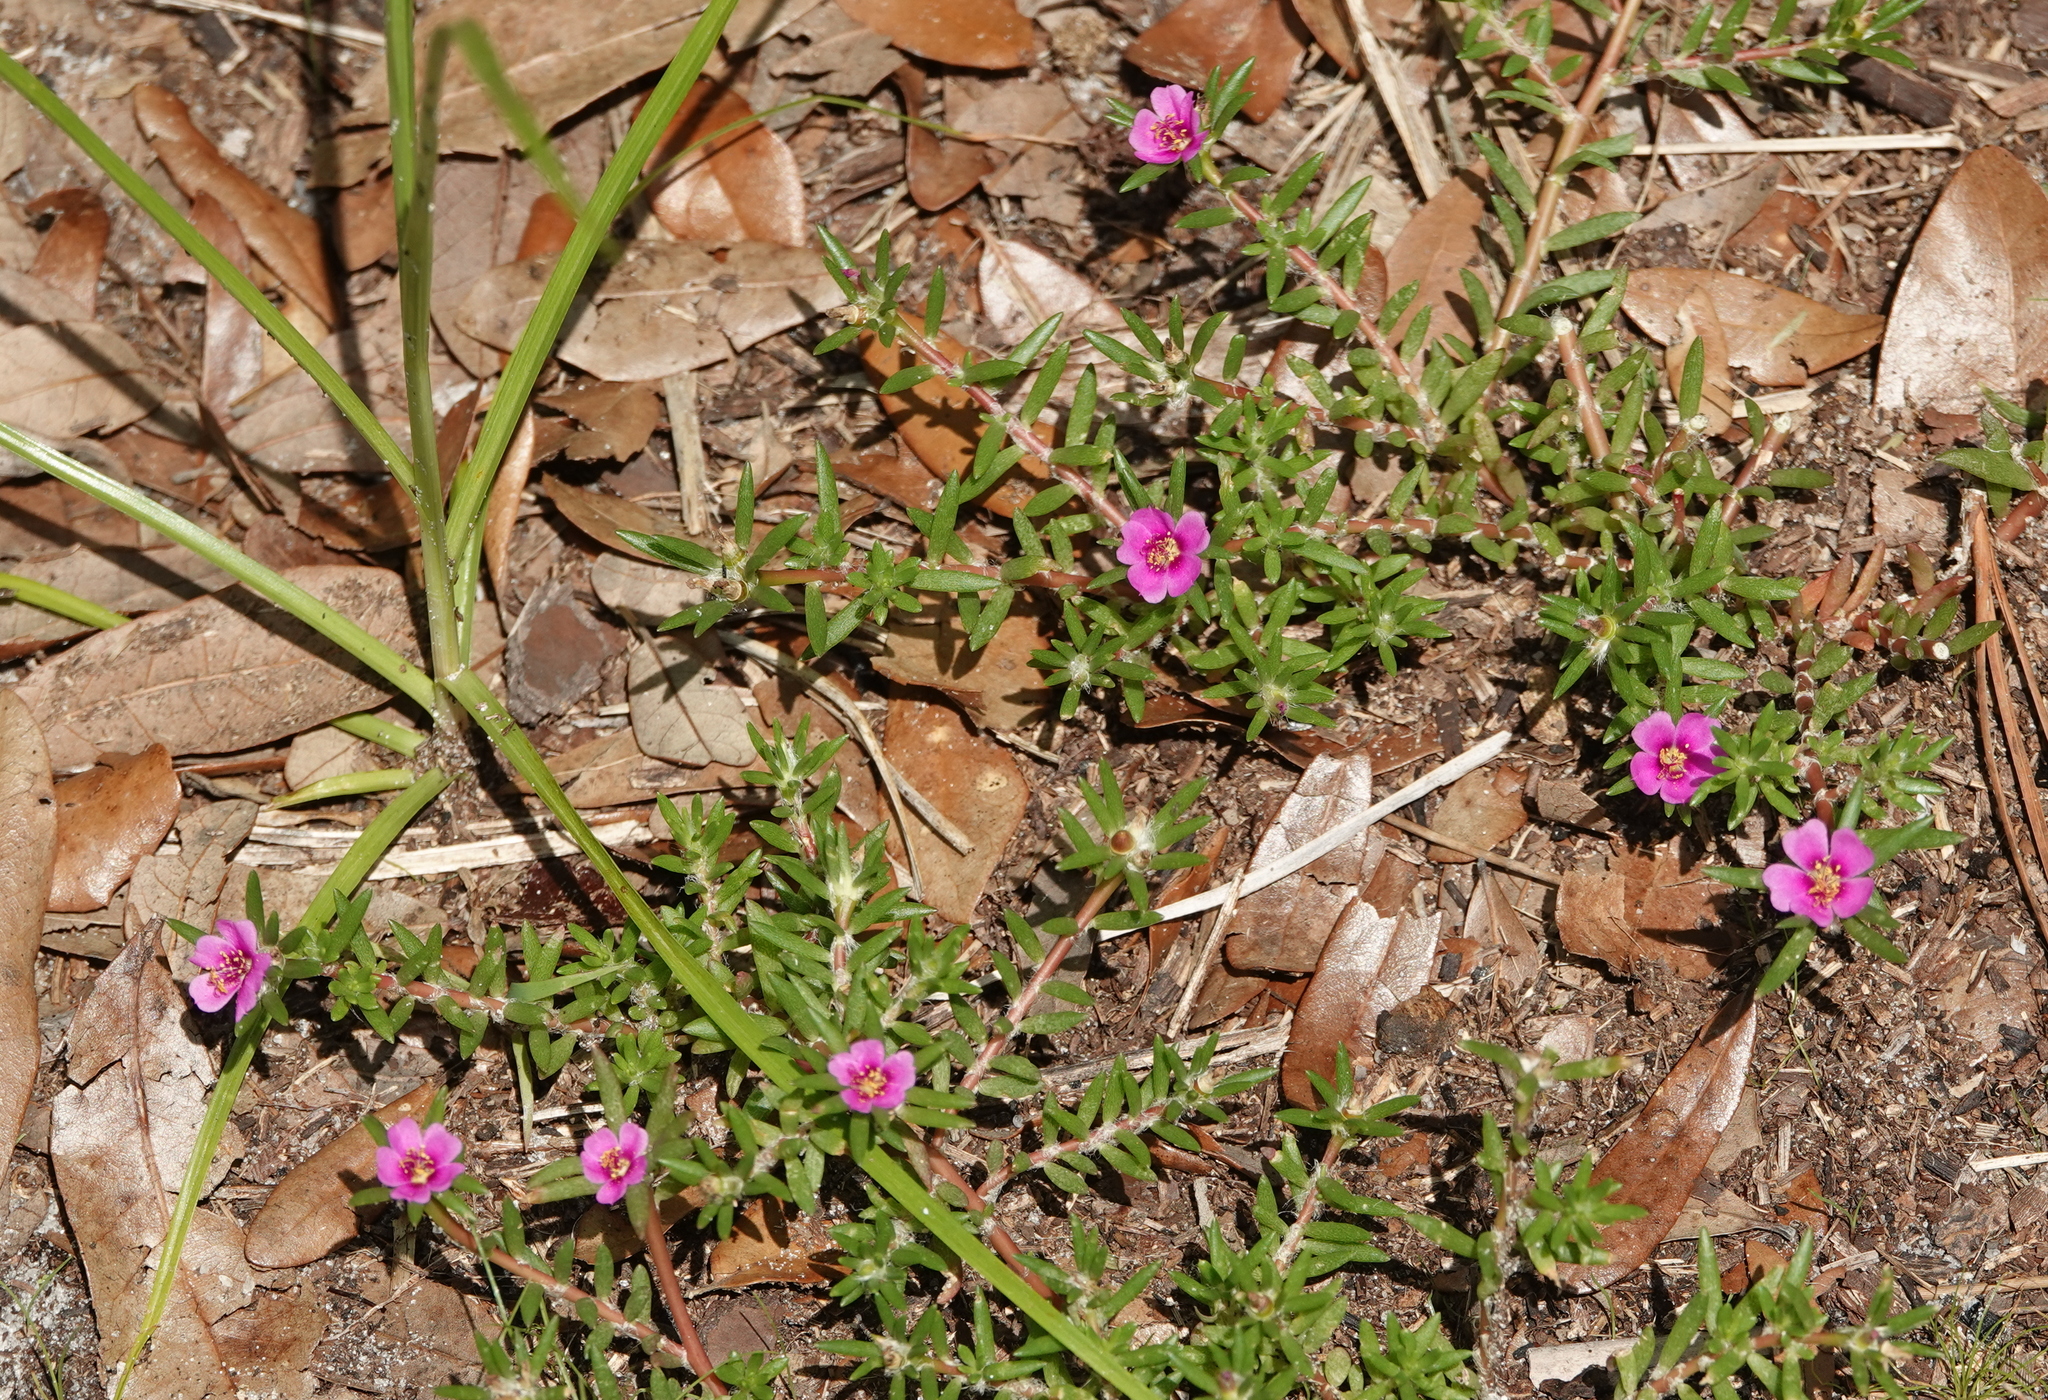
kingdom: Plantae
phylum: Tracheophyta
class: Magnoliopsida
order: Caryophyllales
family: Portulacaceae
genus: Portulaca
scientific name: Portulaca pilosa
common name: Kiss me quick
